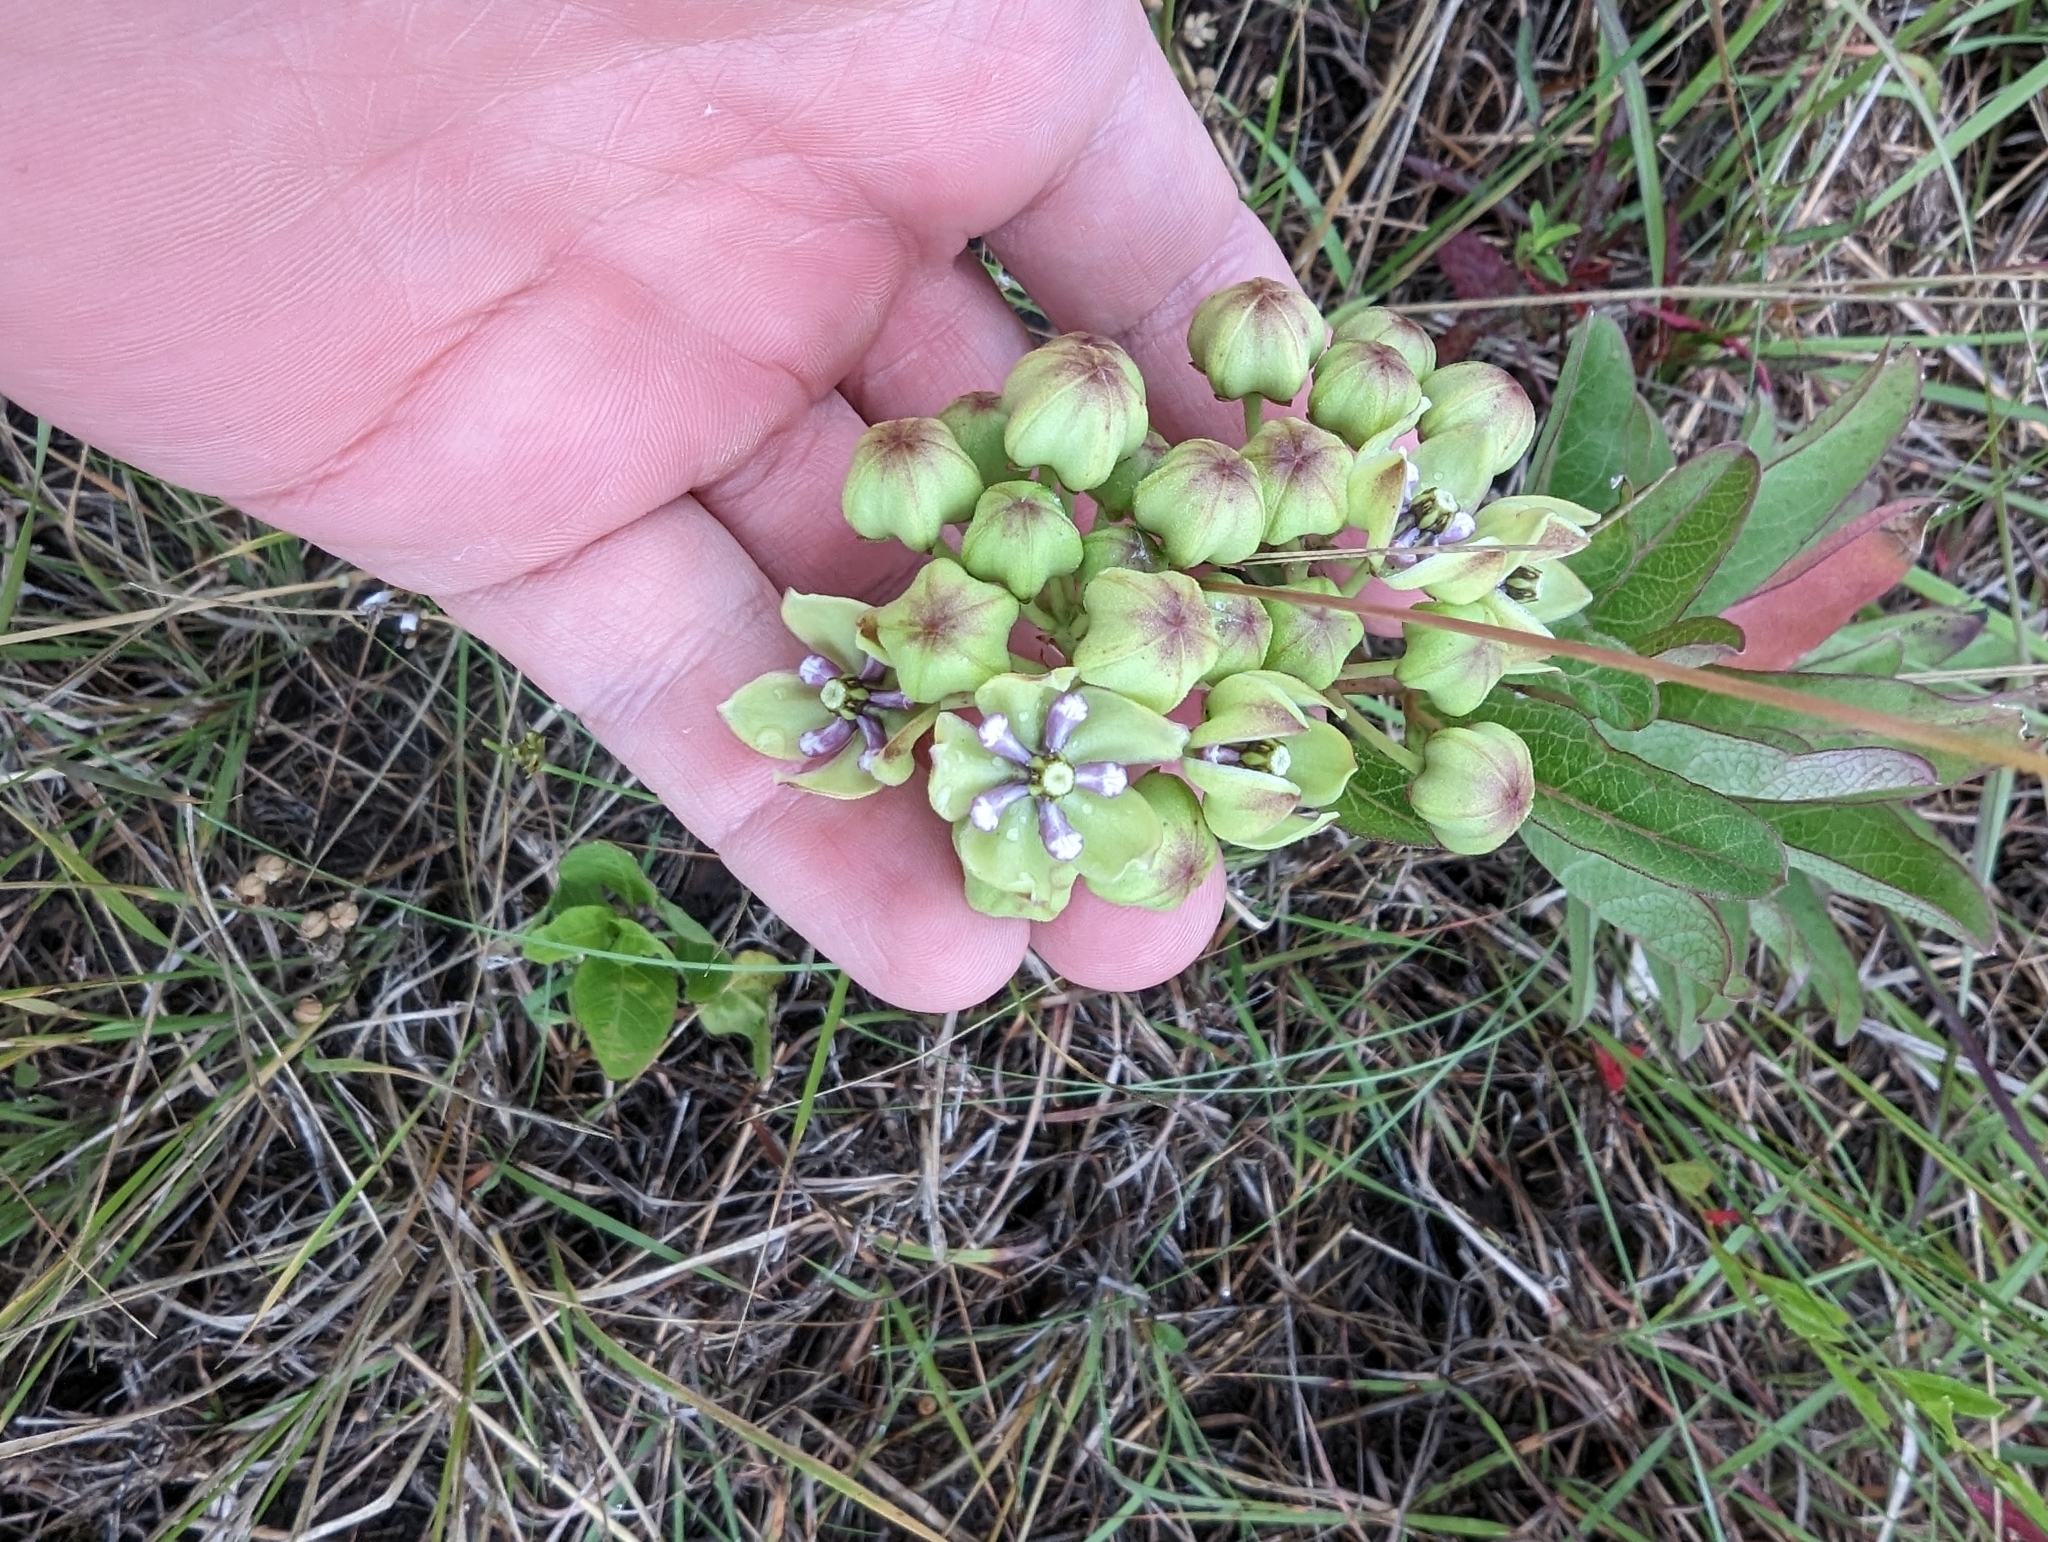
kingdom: Plantae
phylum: Tracheophyta
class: Magnoliopsida
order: Gentianales
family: Apocynaceae
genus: Asclepias
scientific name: Asclepias viridis
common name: Antelope-horns
